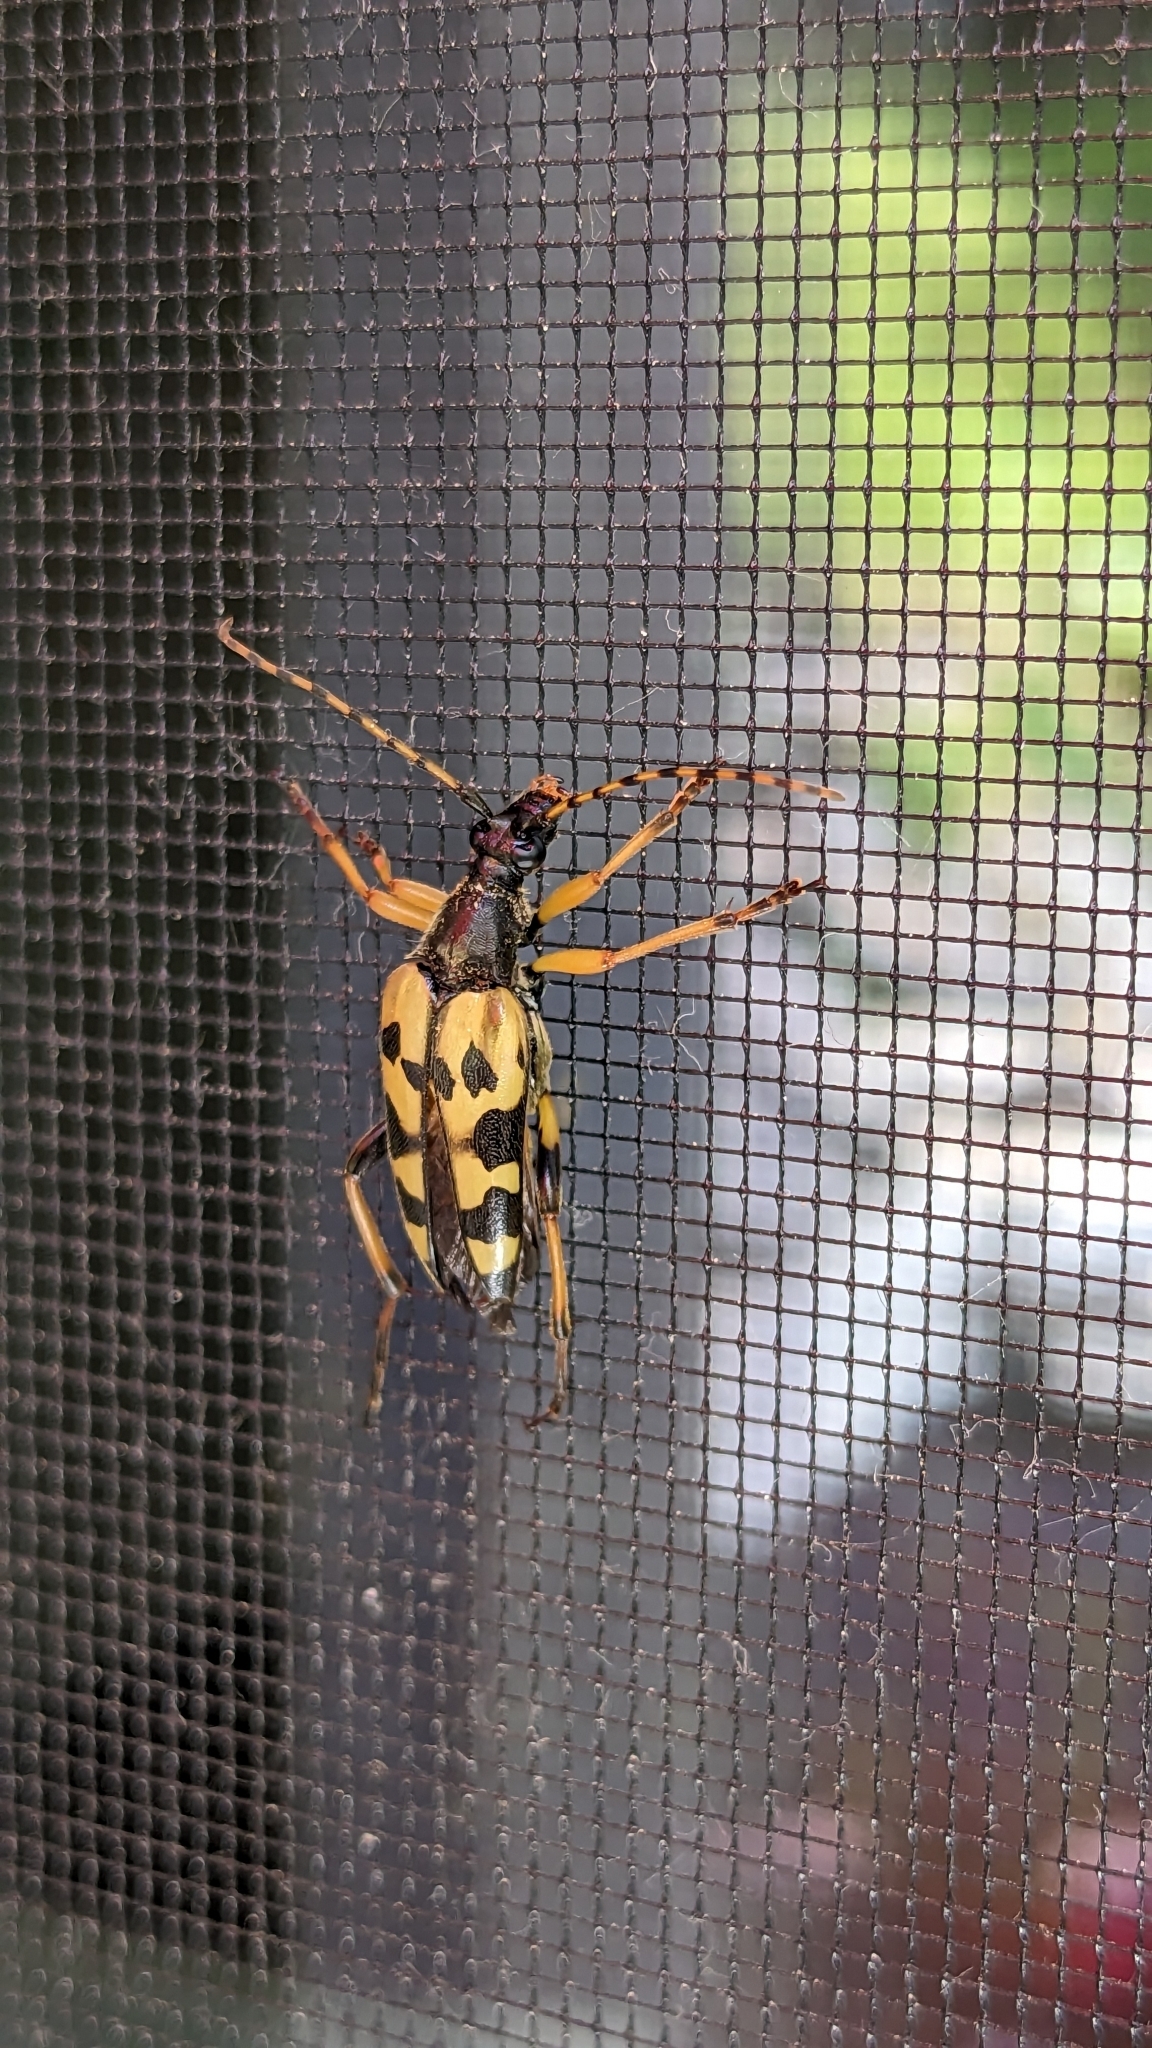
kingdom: Animalia
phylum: Arthropoda
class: Insecta
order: Coleoptera
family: Cerambycidae
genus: Rutpela
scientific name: Rutpela maculata
